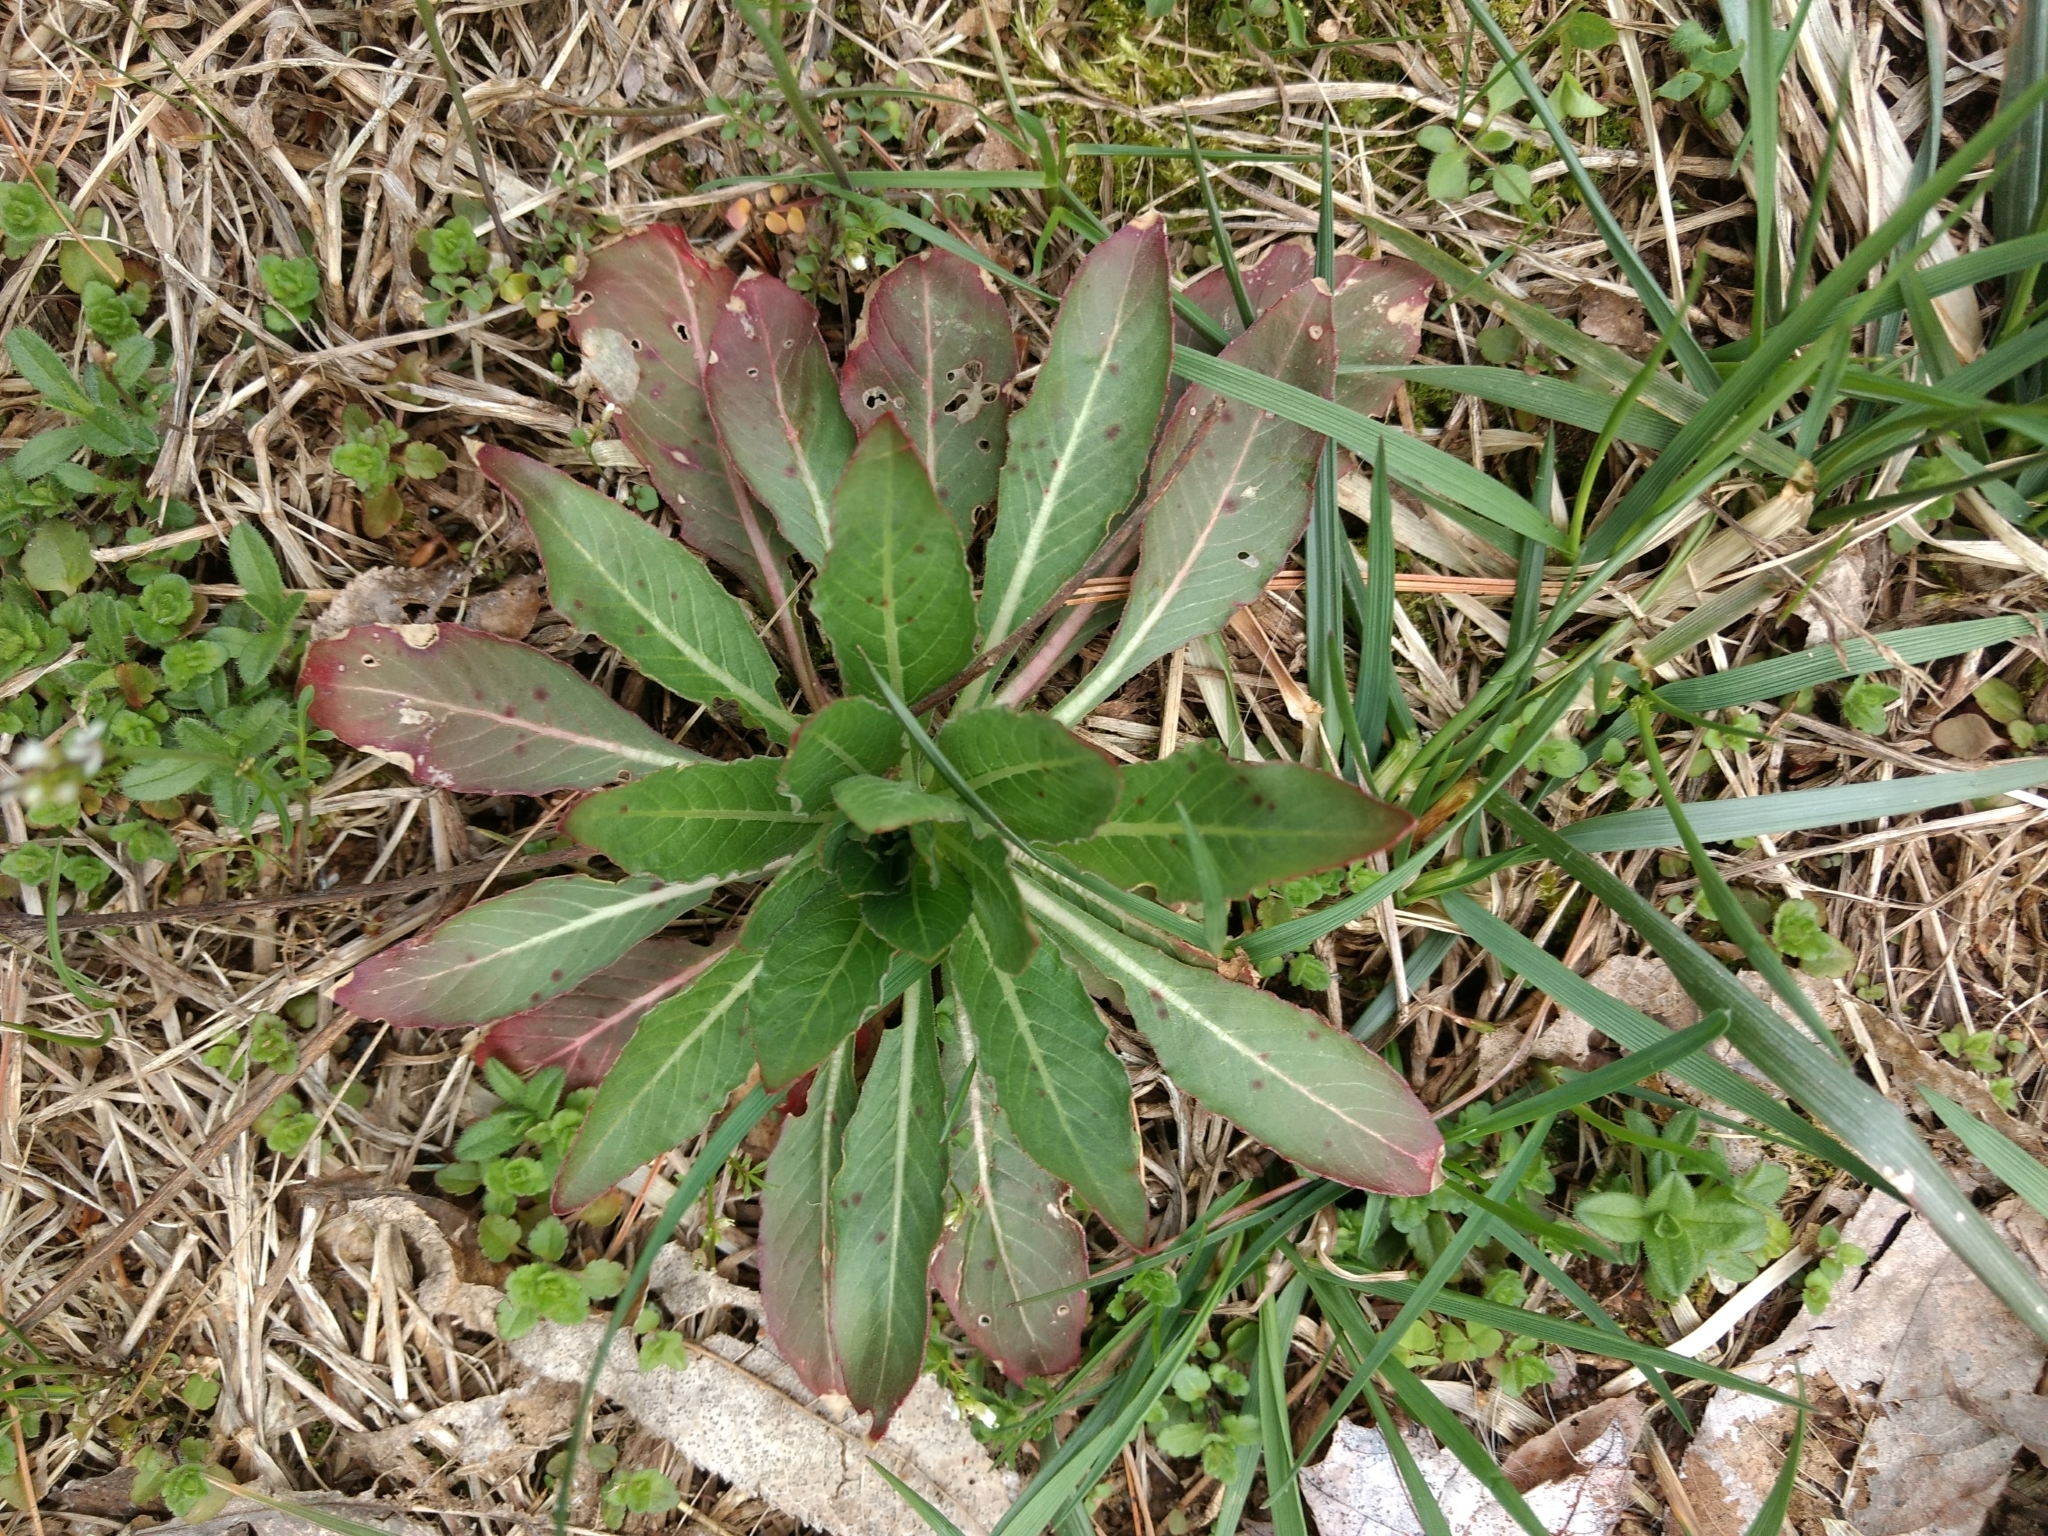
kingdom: Plantae
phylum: Tracheophyta
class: Magnoliopsida
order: Myrtales
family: Onagraceae
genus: Oenothera
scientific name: Oenothera biennis
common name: Common evening-primrose
